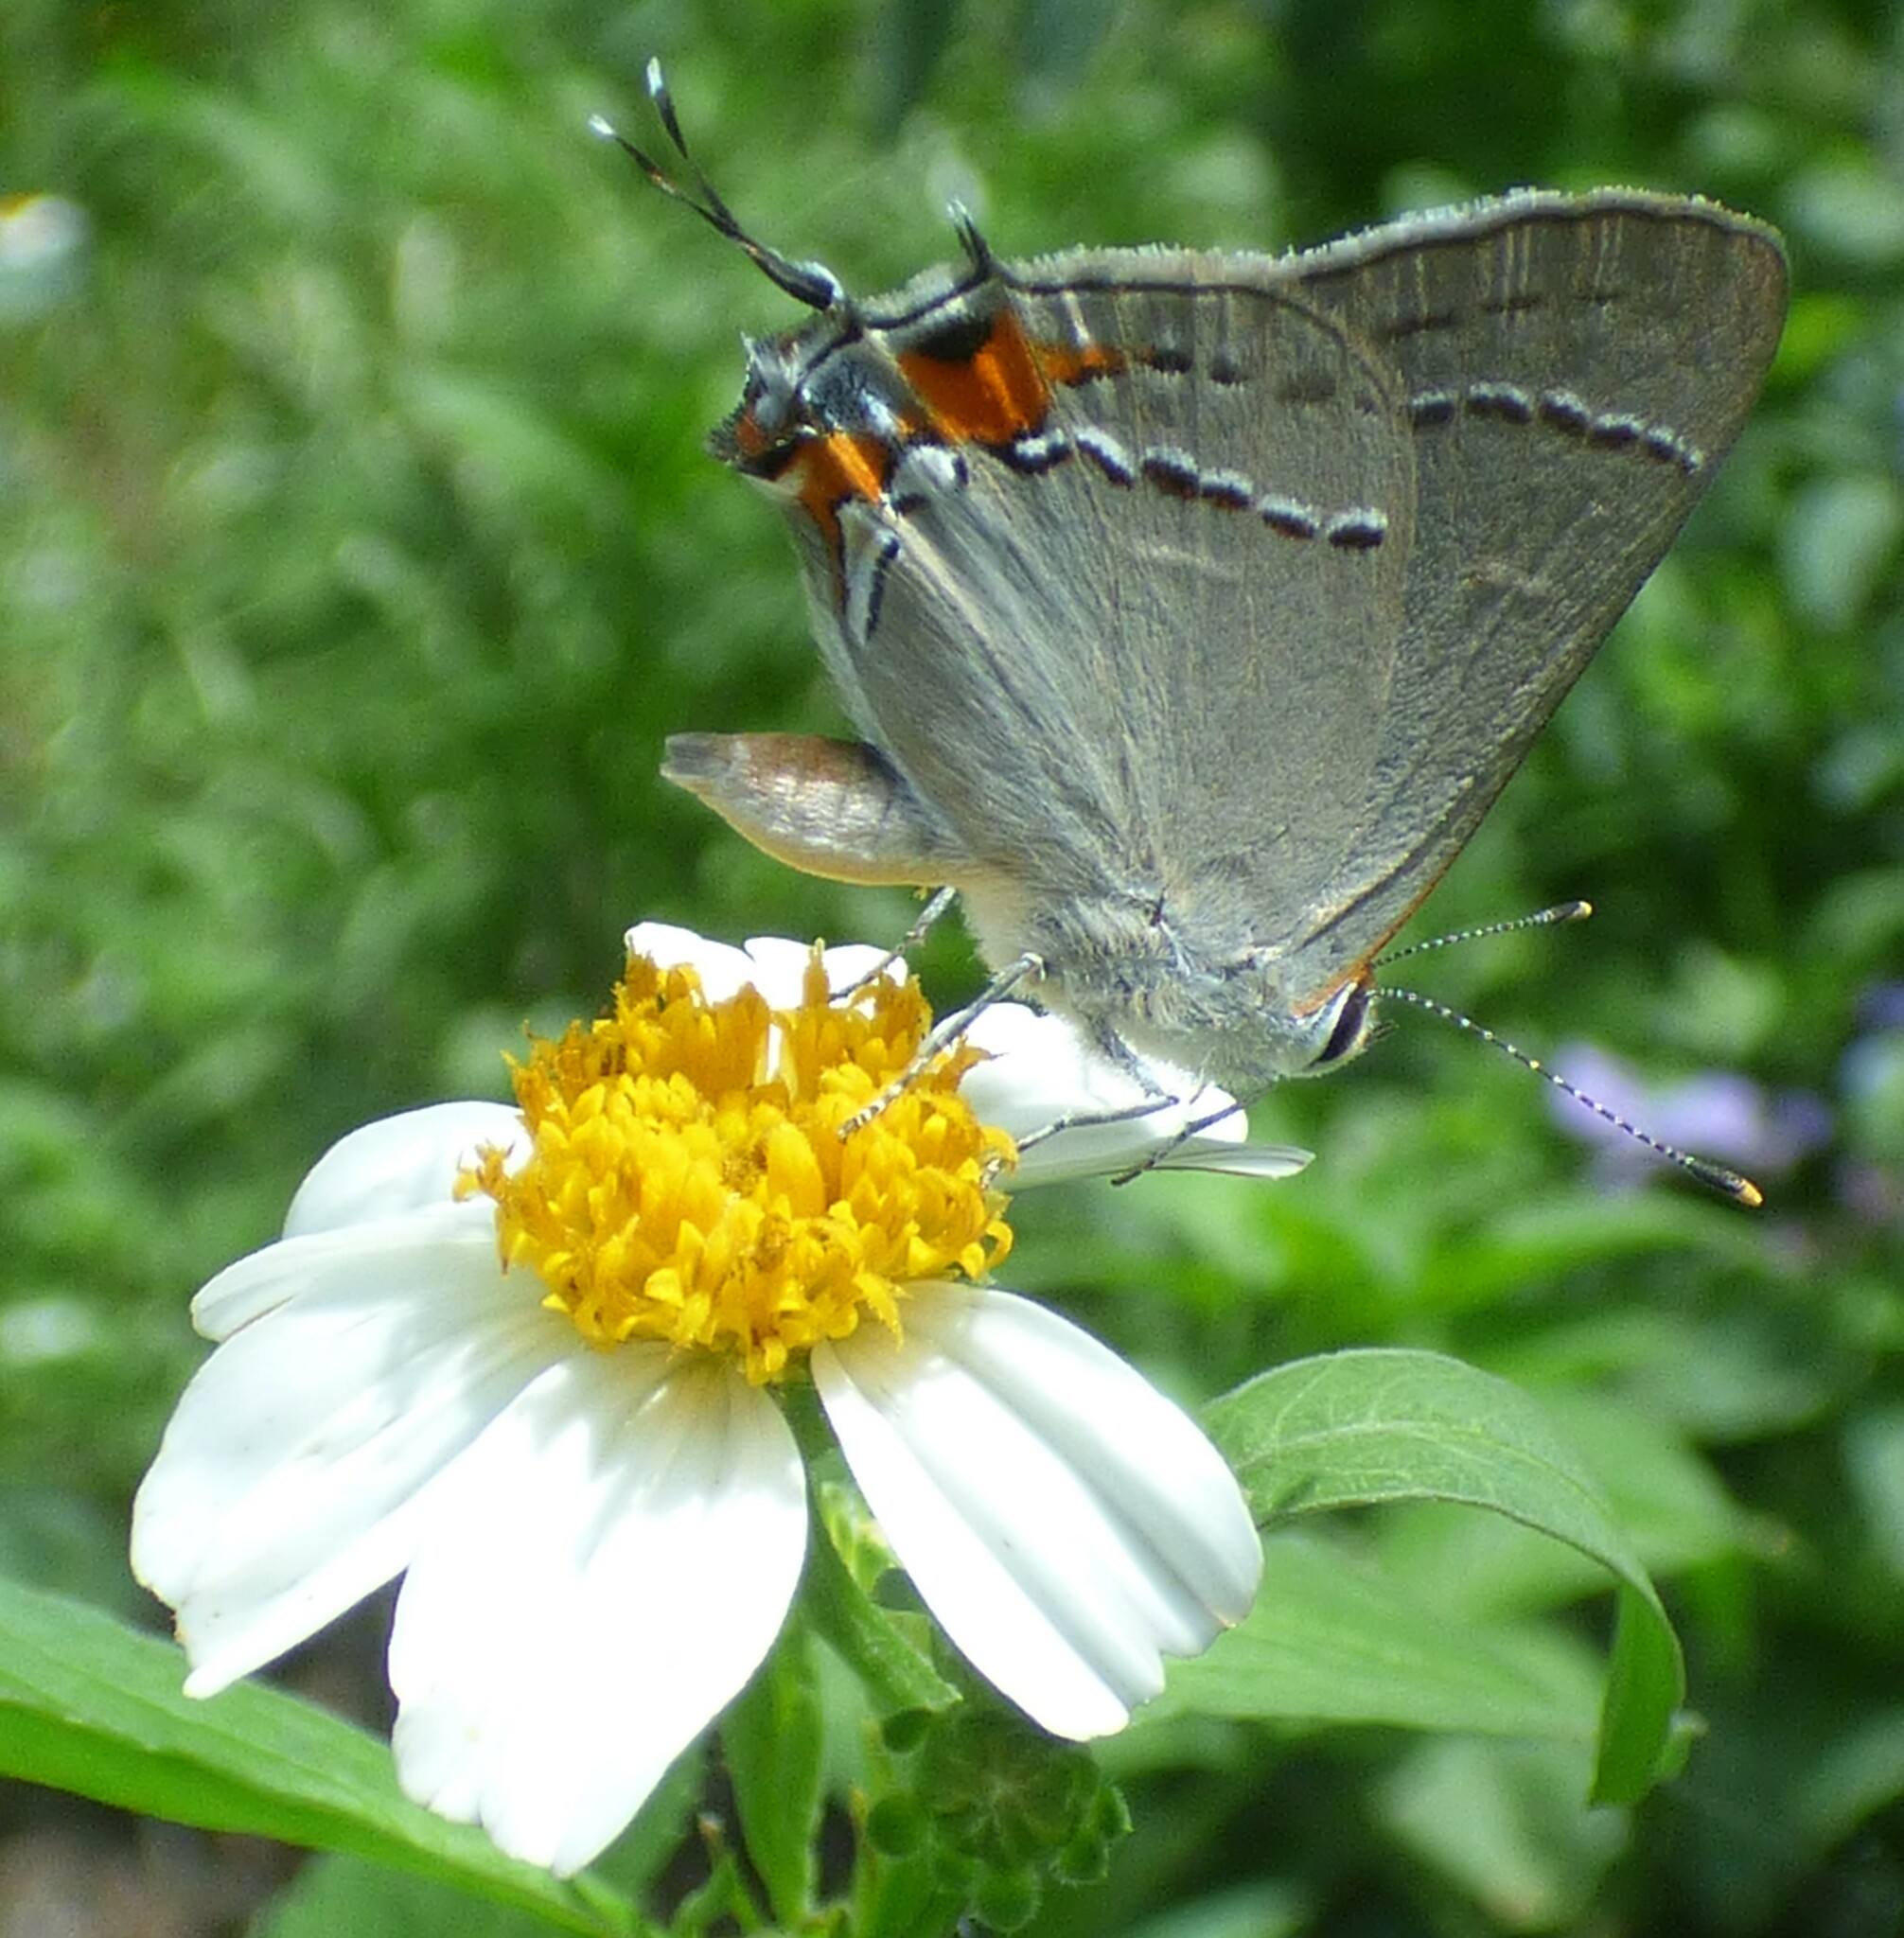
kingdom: Animalia
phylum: Arthropoda
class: Insecta
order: Lepidoptera
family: Lycaenidae
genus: Strymon
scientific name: Strymon melinus
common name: Gray hairstreak
